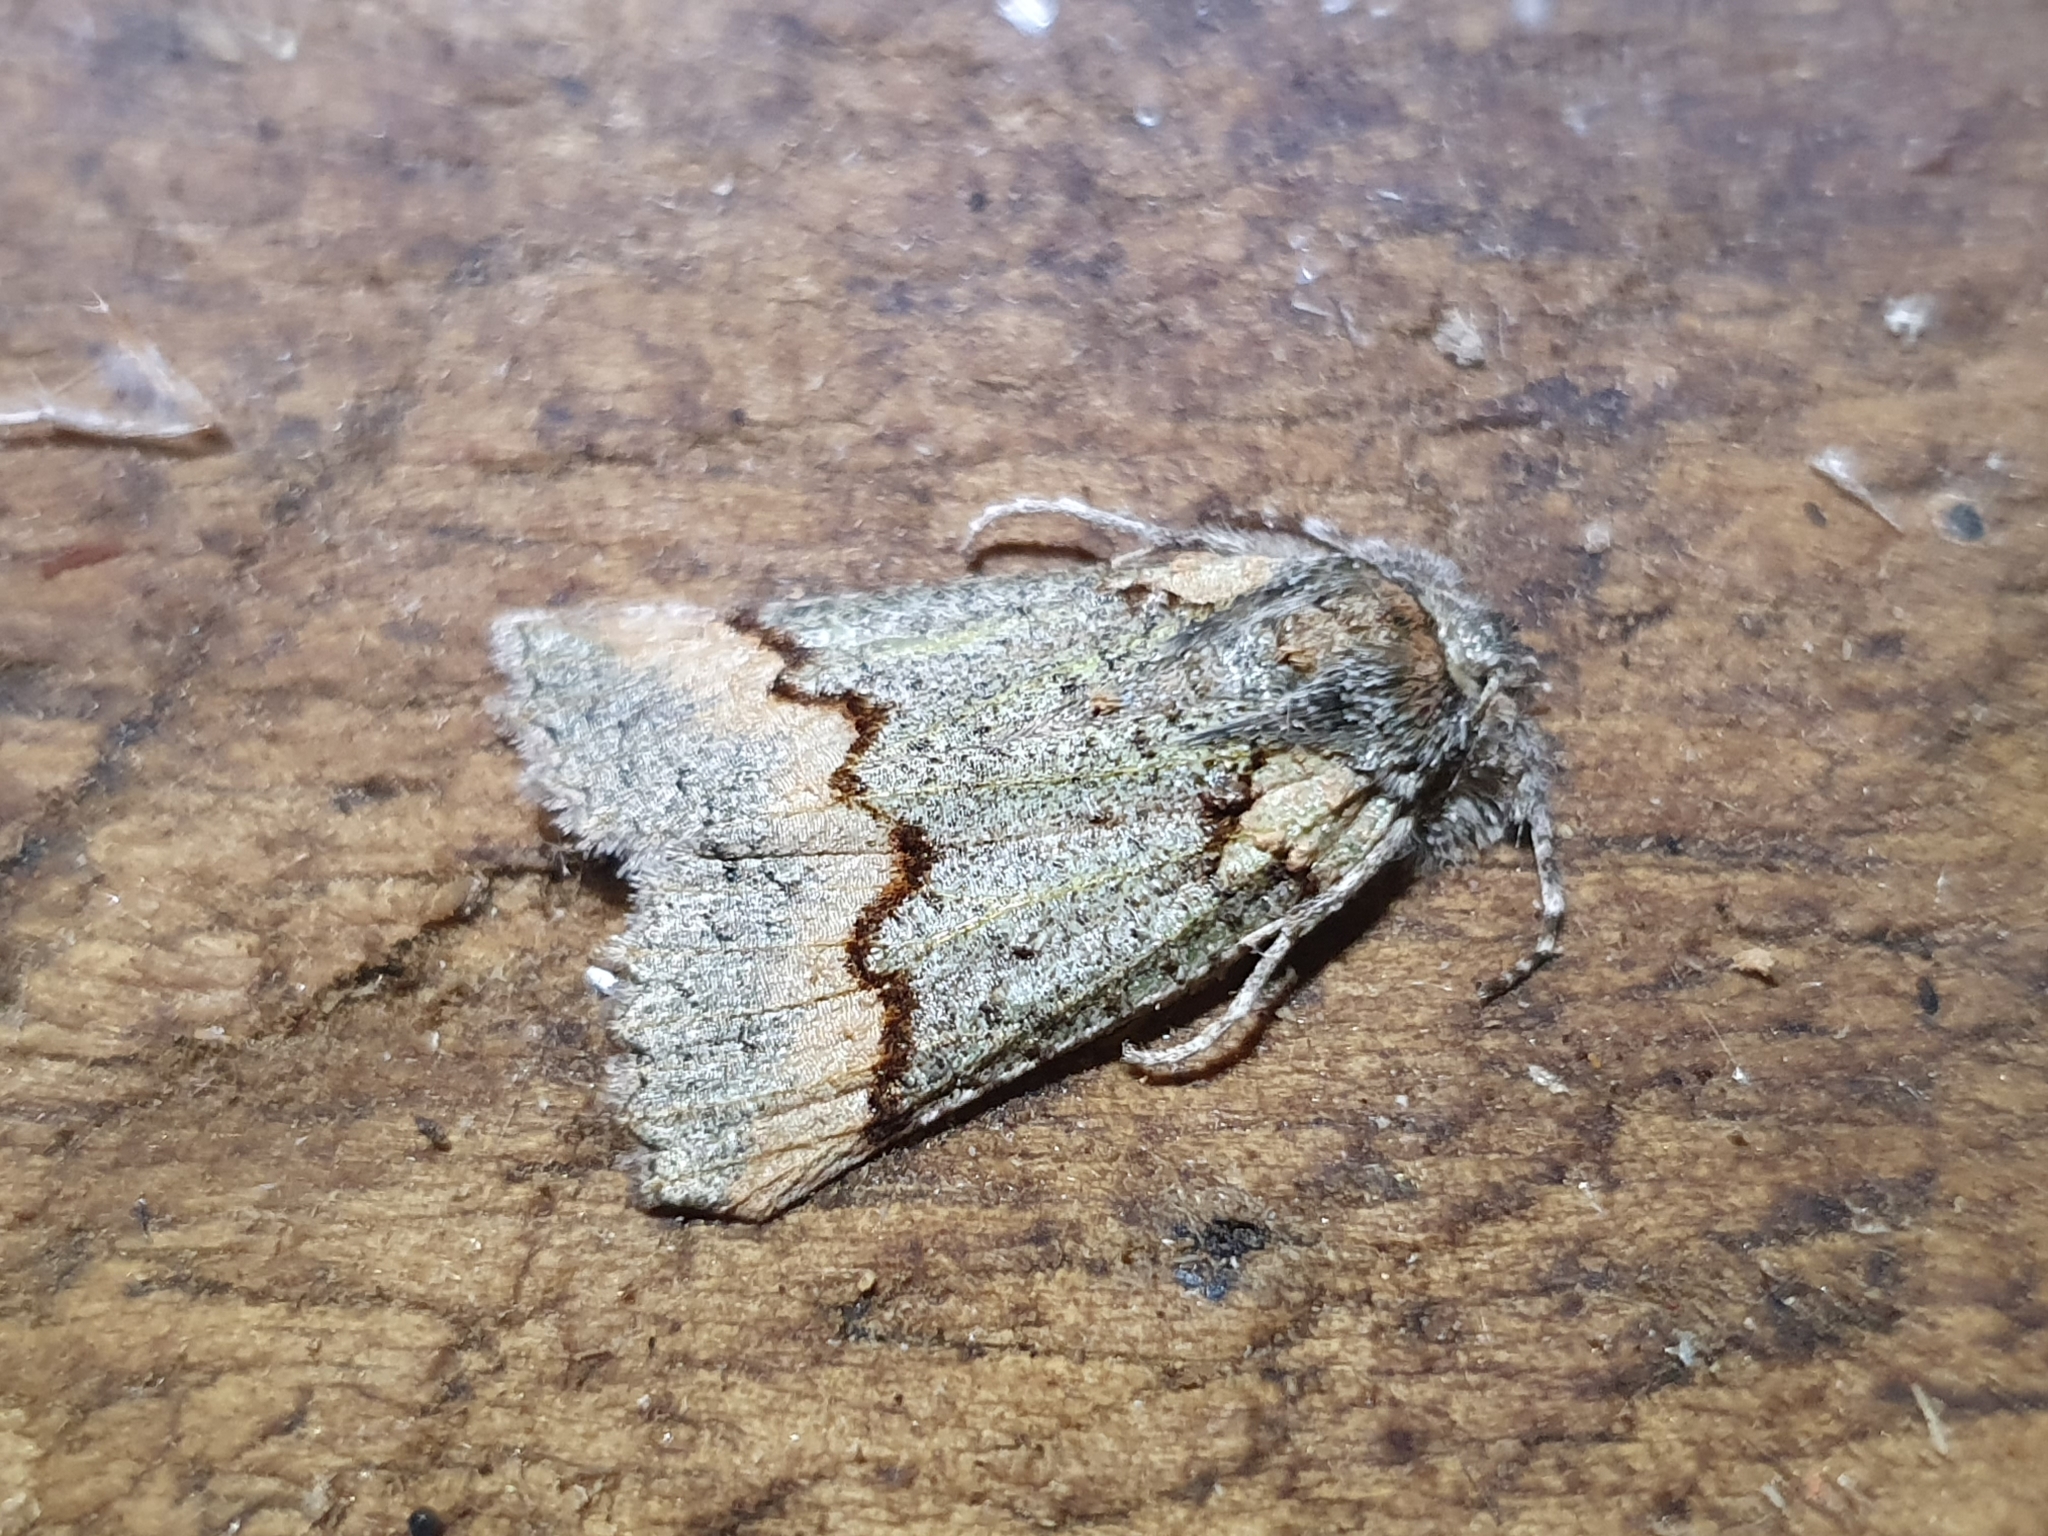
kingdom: Animalia
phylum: Arthropoda
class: Insecta
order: Lepidoptera
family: Geometridae
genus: Declana
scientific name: Declana floccosa
